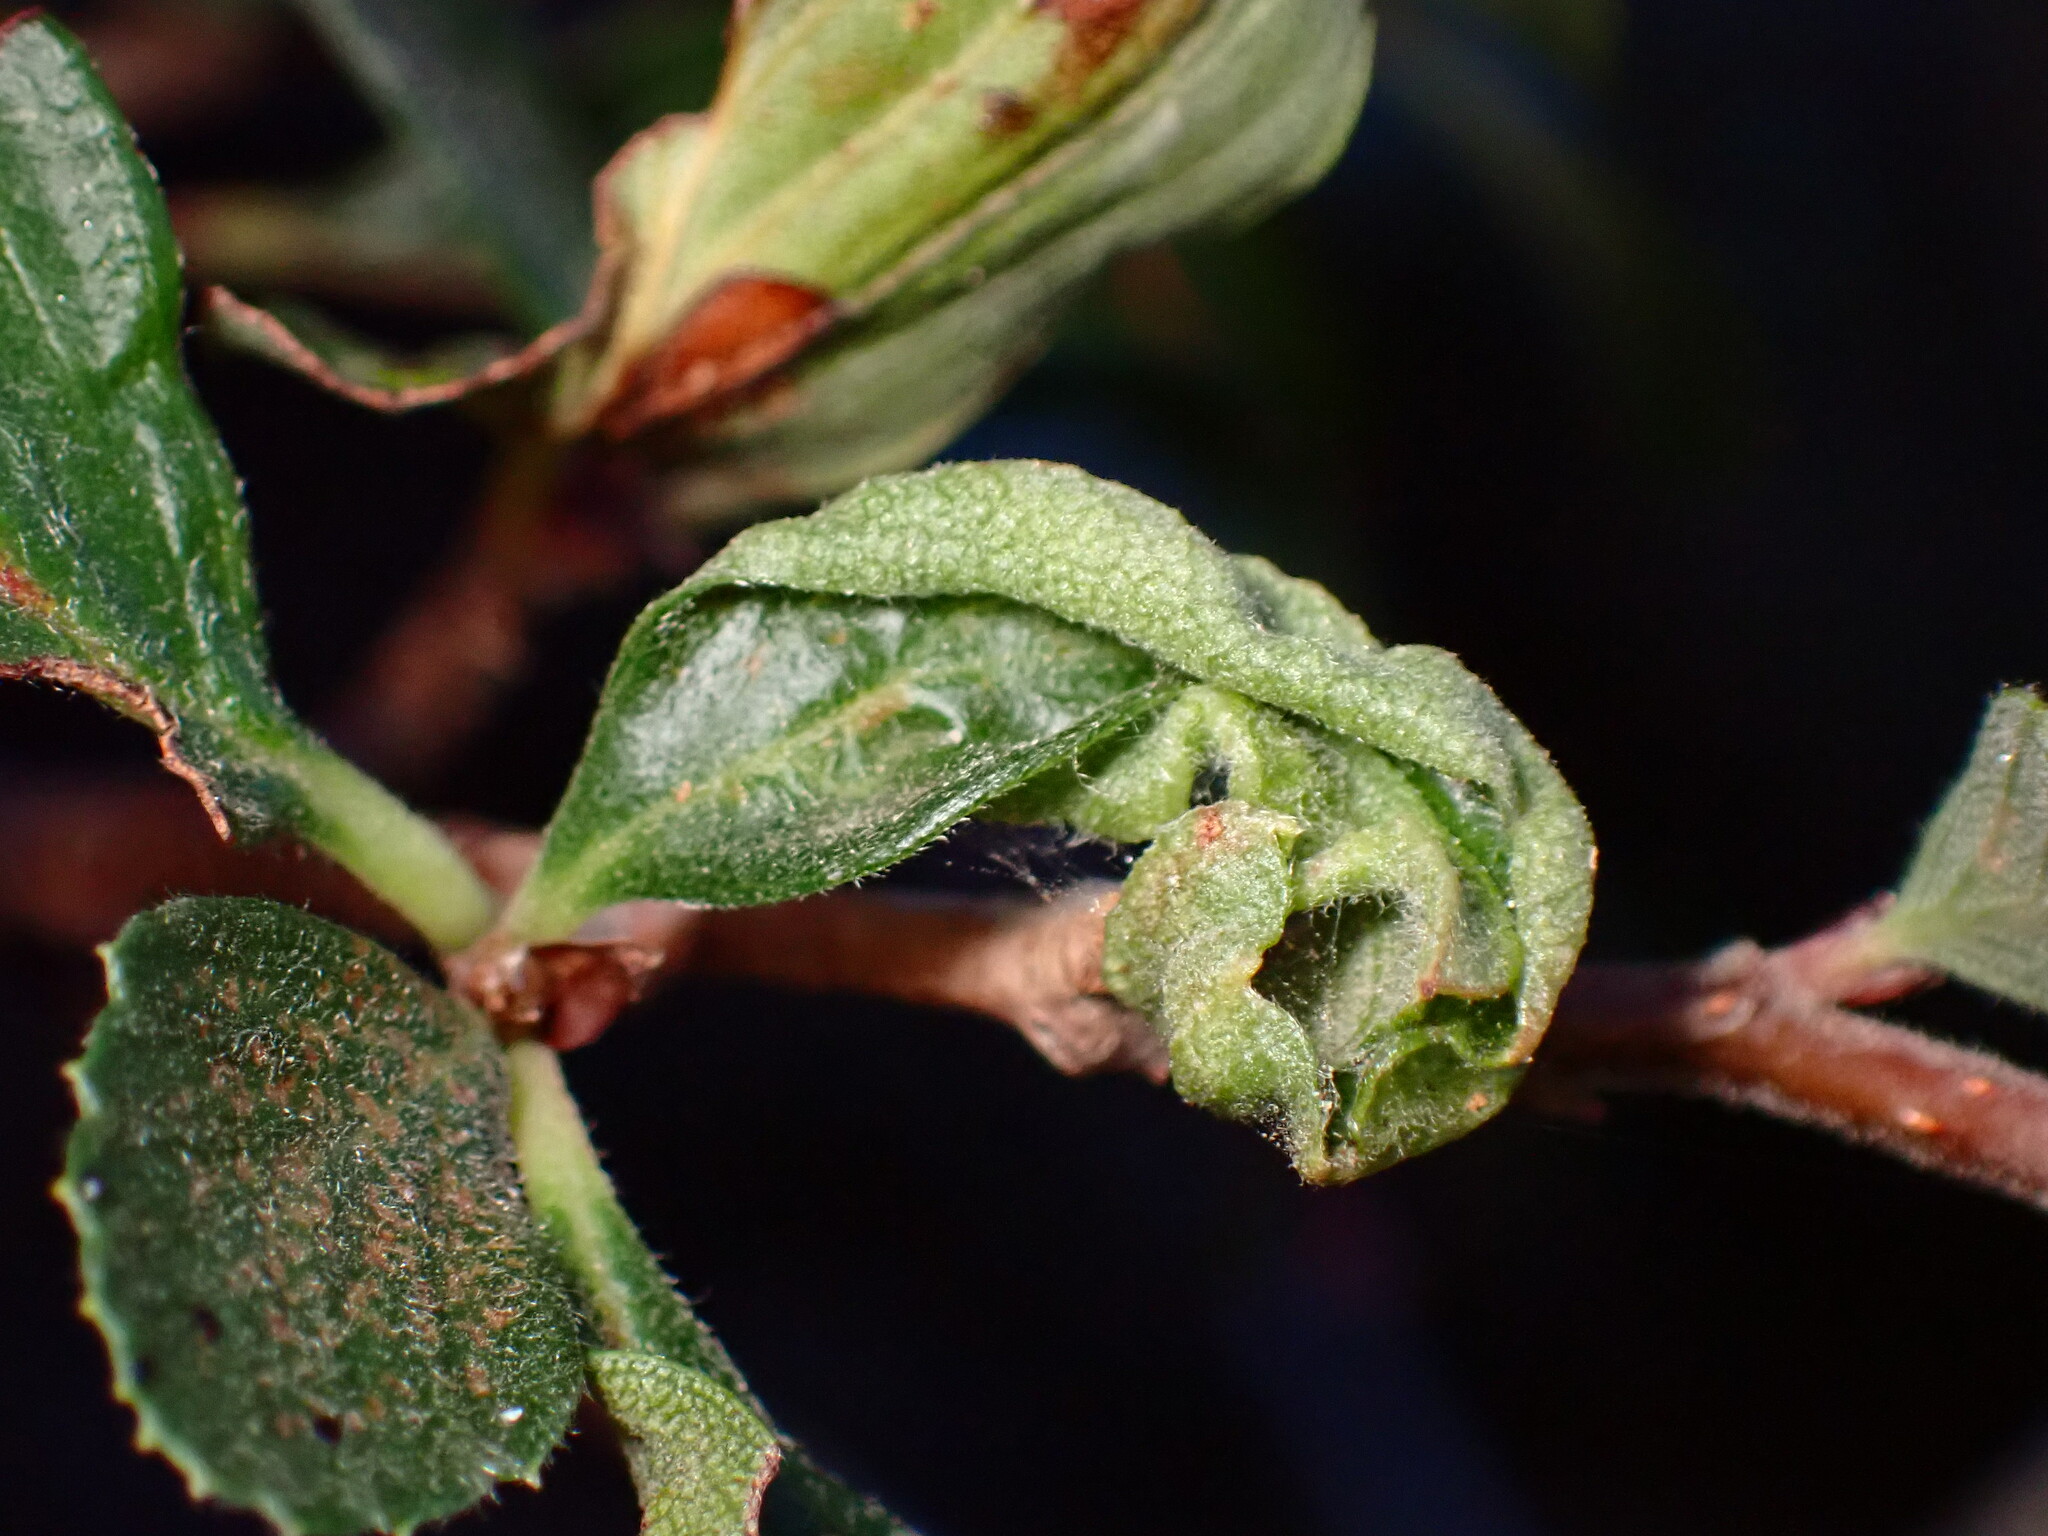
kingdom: Animalia
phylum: Arthropoda
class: Insecta
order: Hemiptera
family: Psyllidae
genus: Purshivora
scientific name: Purshivora
